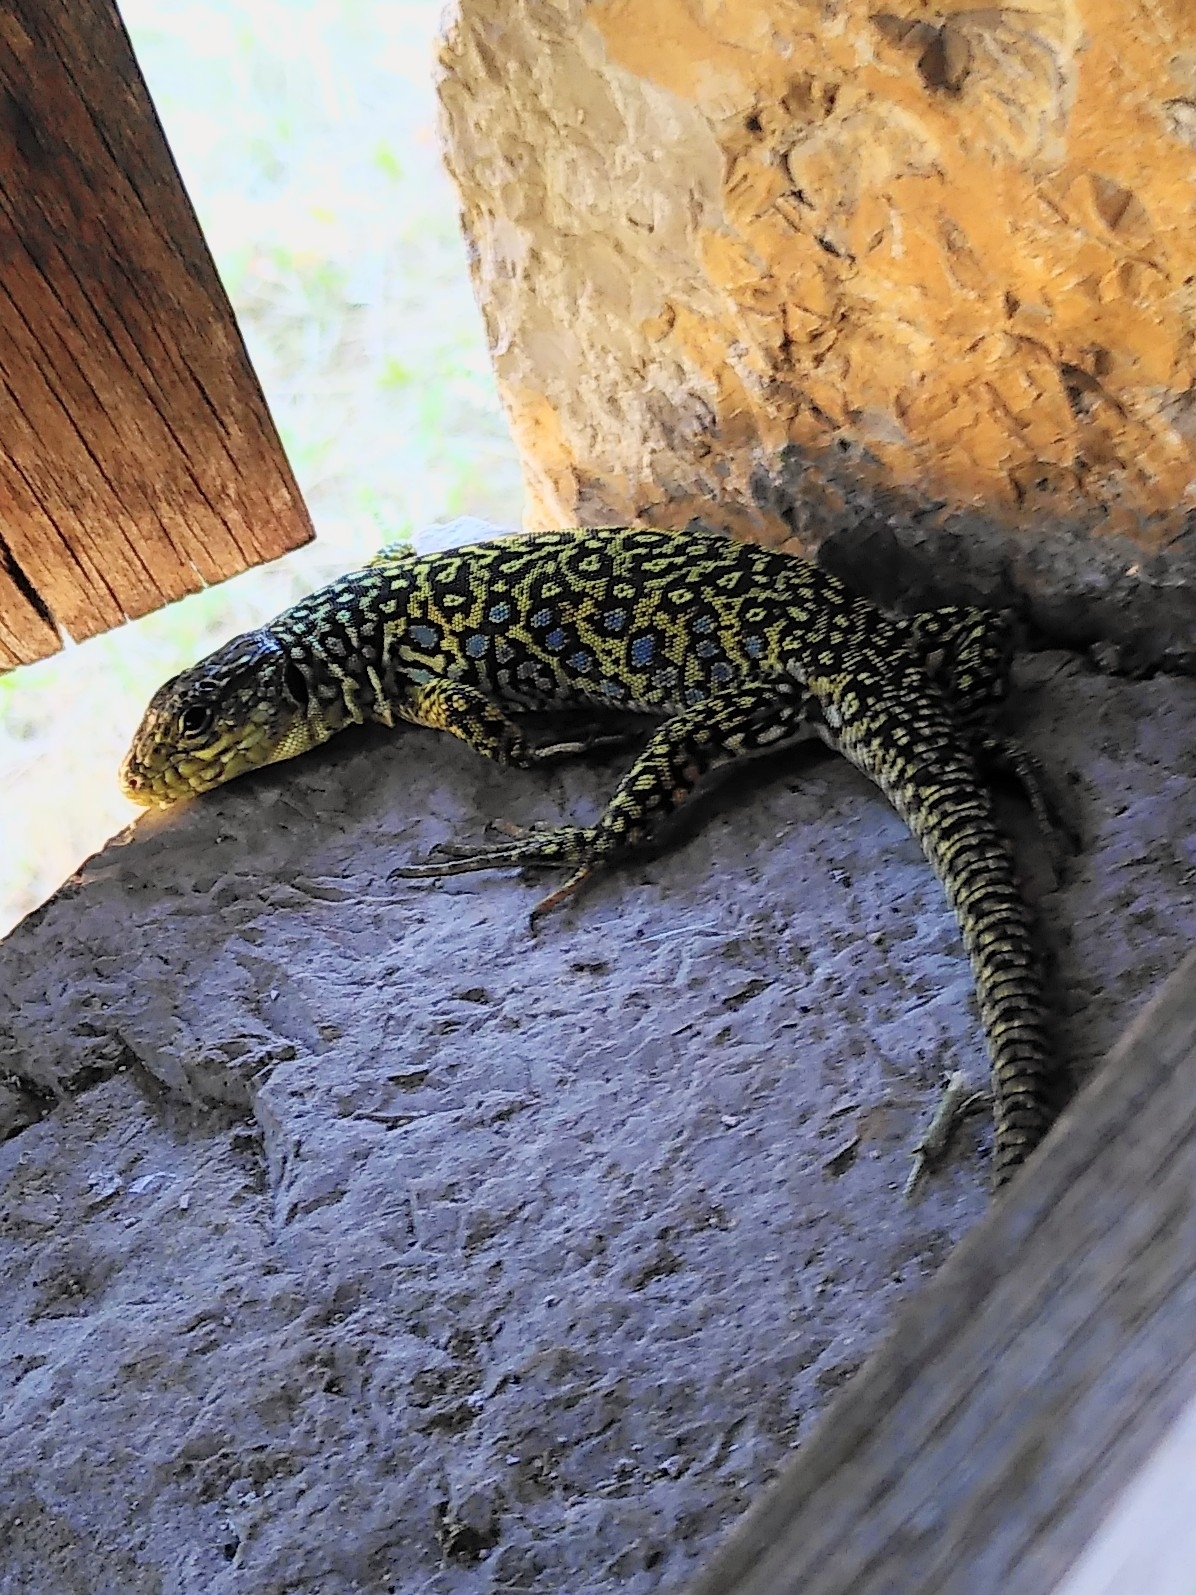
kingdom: Animalia
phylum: Chordata
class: Squamata
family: Lacertidae
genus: Timon
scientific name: Timon lepidus
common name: Ocellated lizard
